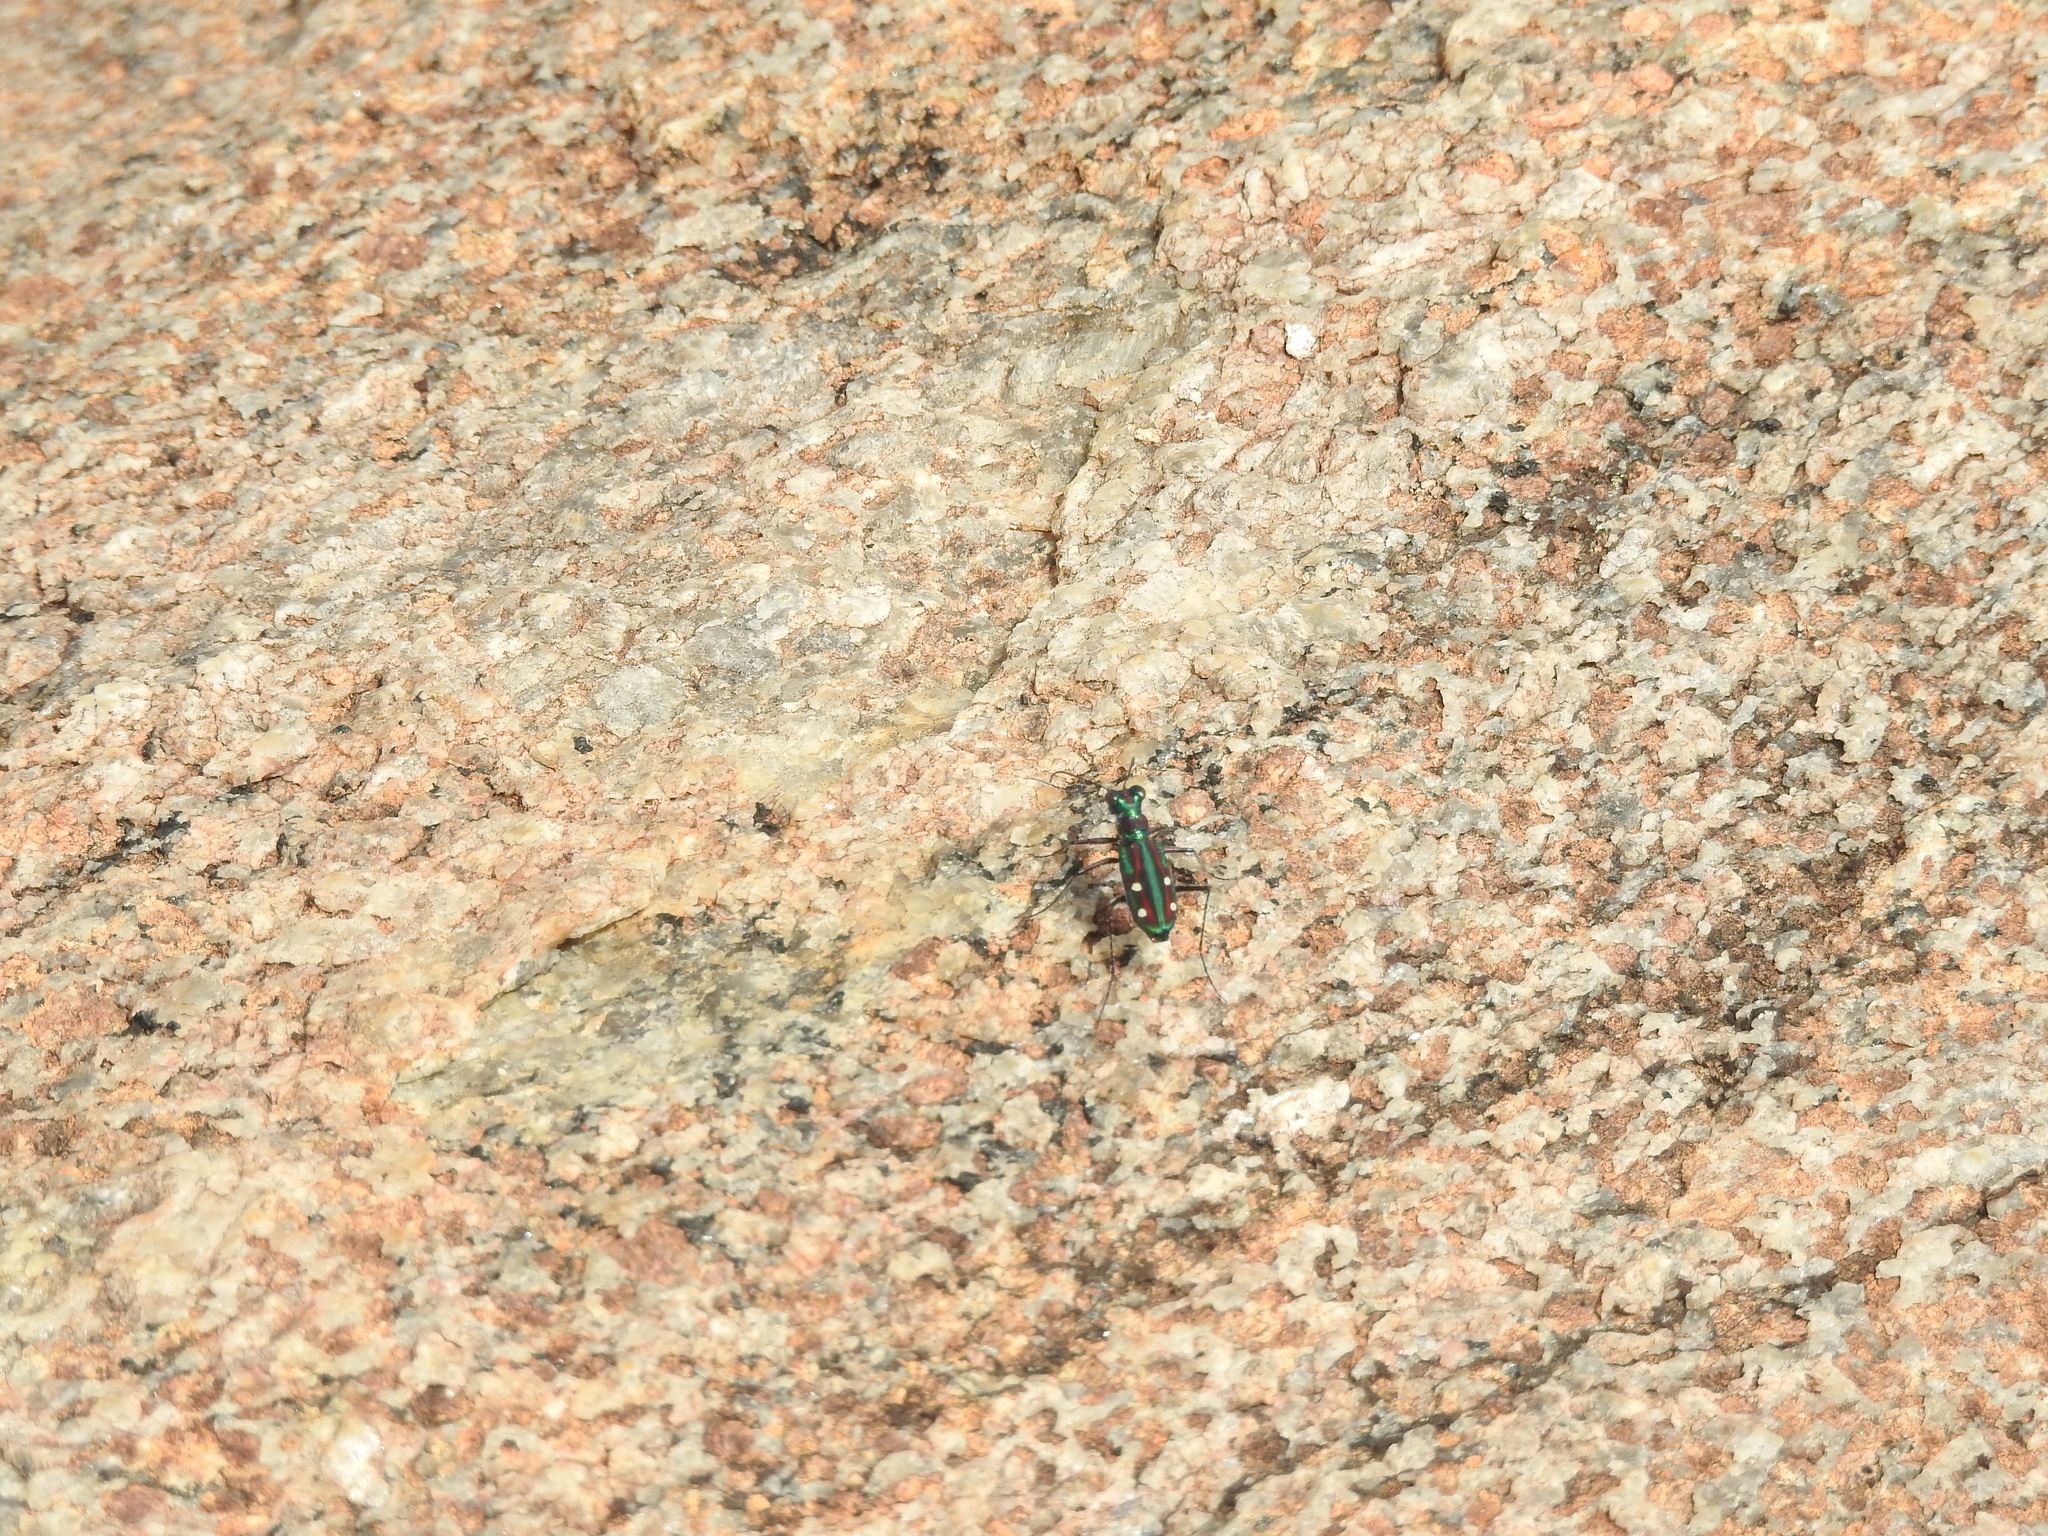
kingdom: Animalia
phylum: Arthropoda
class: Insecta
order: Coleoptera
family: Carabidae
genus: Jansenia
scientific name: Jansenia rugosiceps
